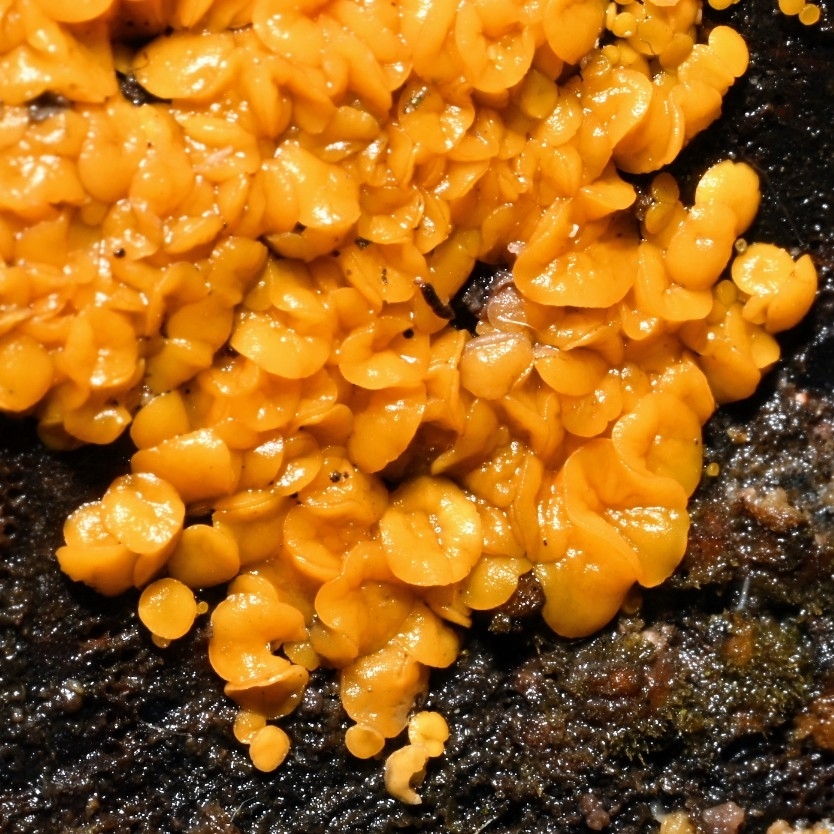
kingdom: Fungi
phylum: Ascomycota
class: Leotiomycetes
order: Helotiales
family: Pezizellaceae
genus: Calycina
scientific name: Calycina citrina
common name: Yellow fairy cups
